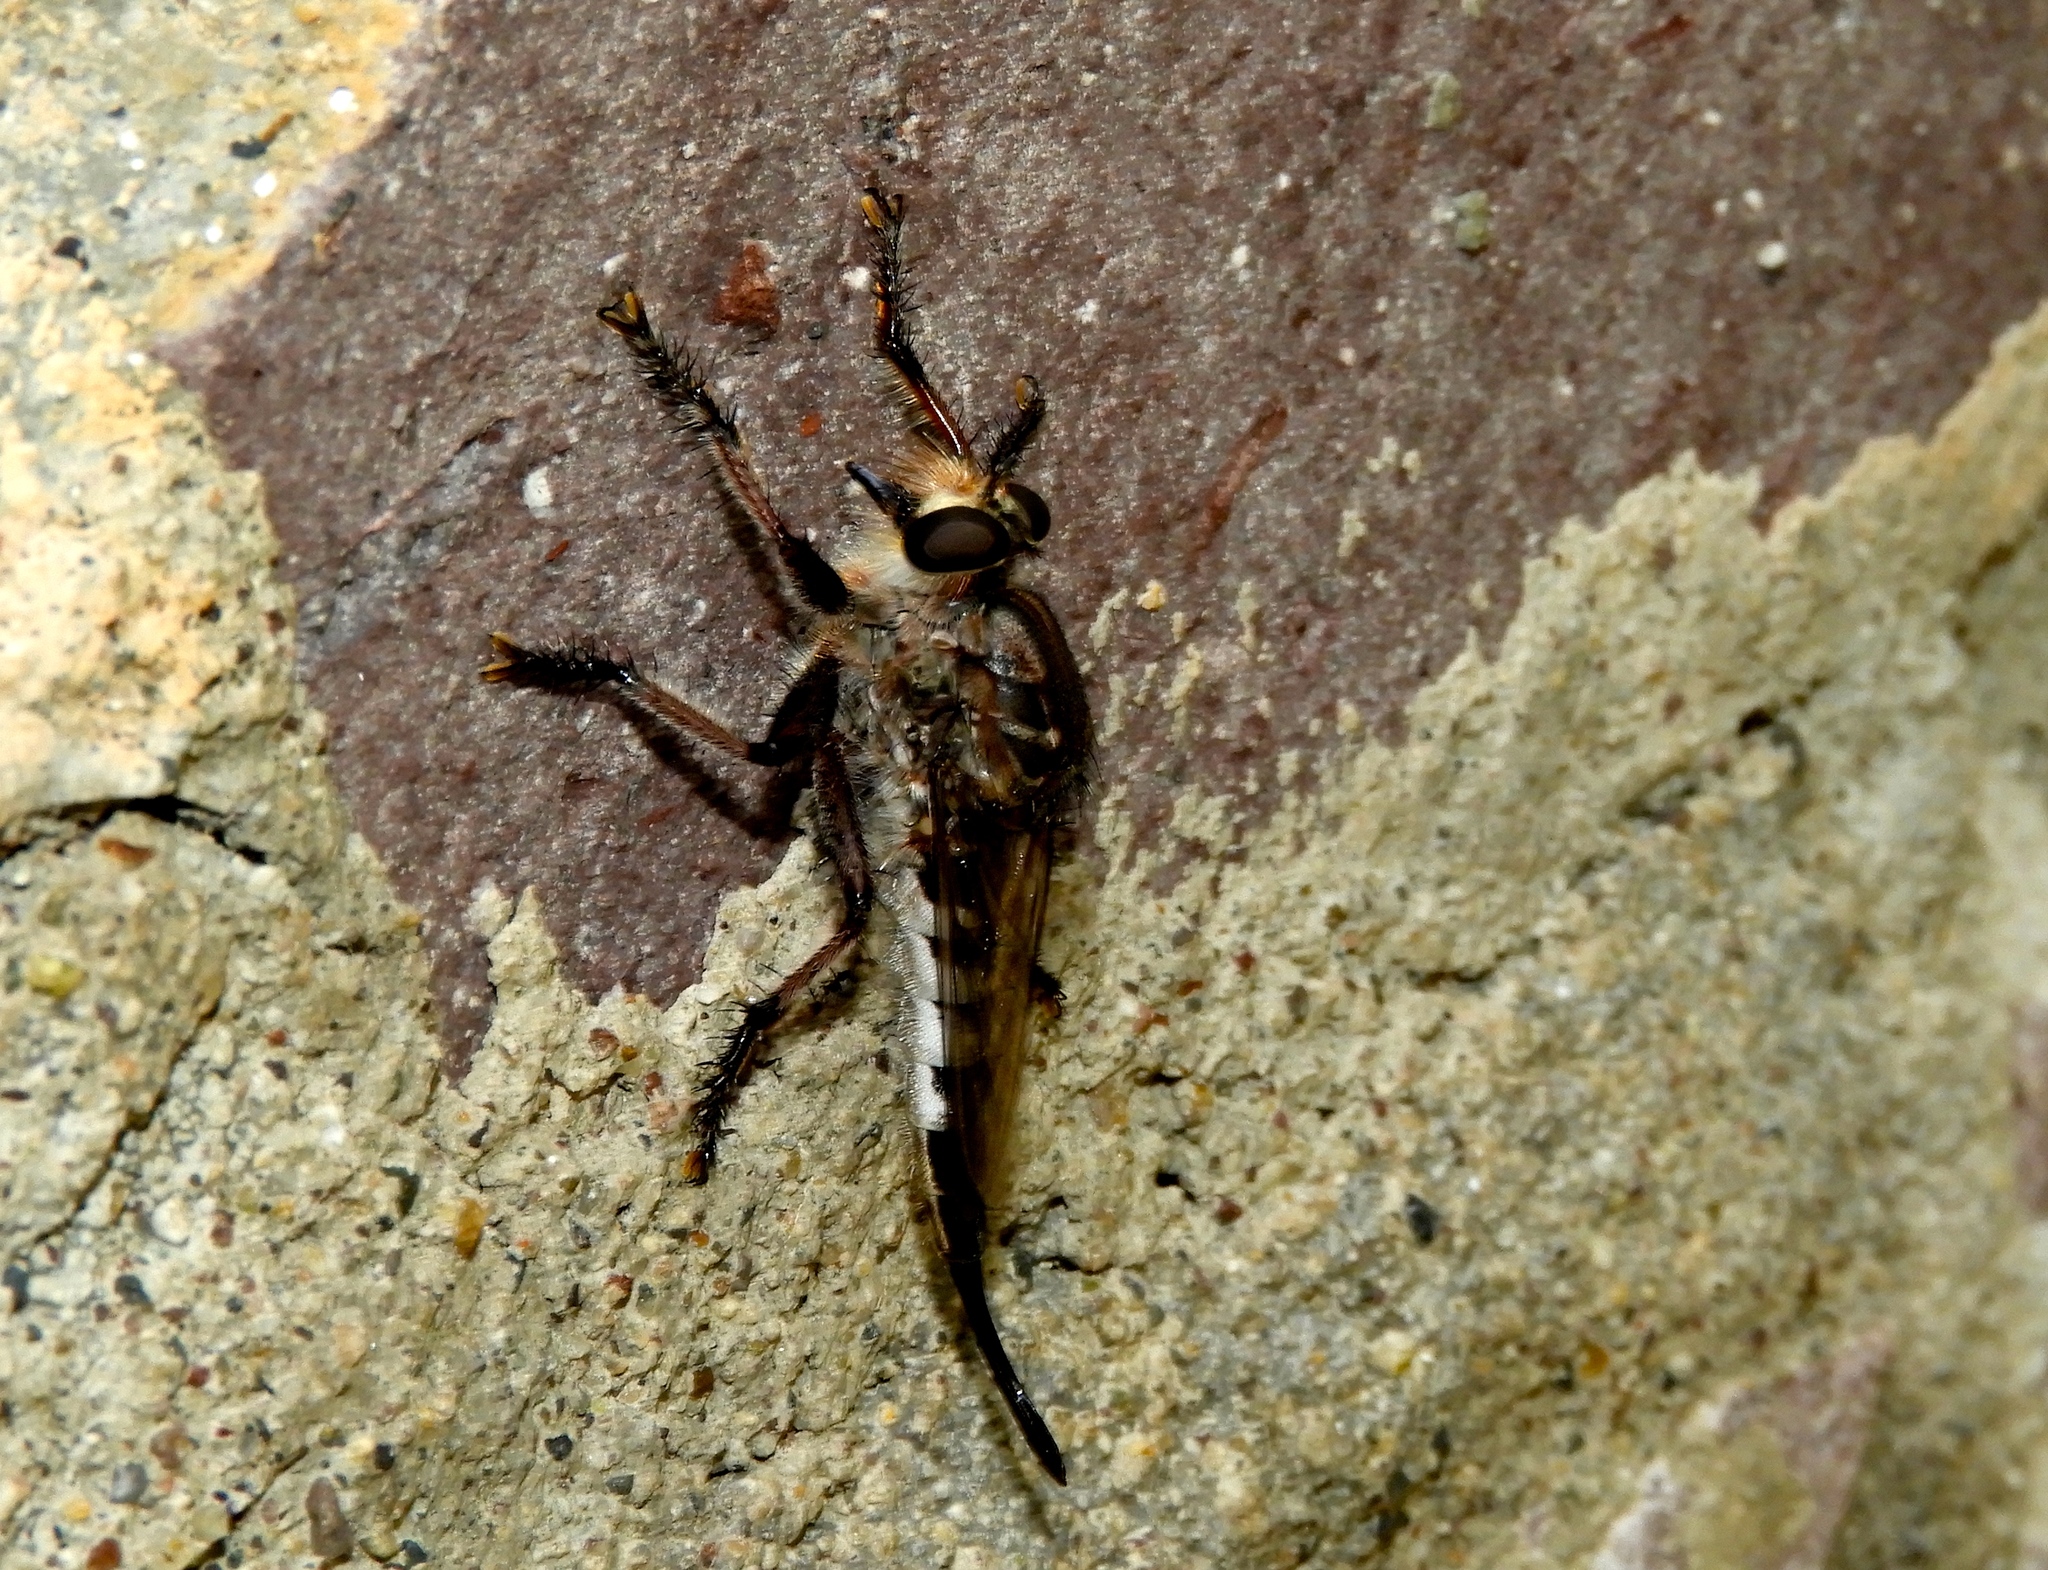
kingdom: Animalia
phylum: Arthropoda
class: Insecta
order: Diptera
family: Asilidae
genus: Efferia
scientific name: Efferia
